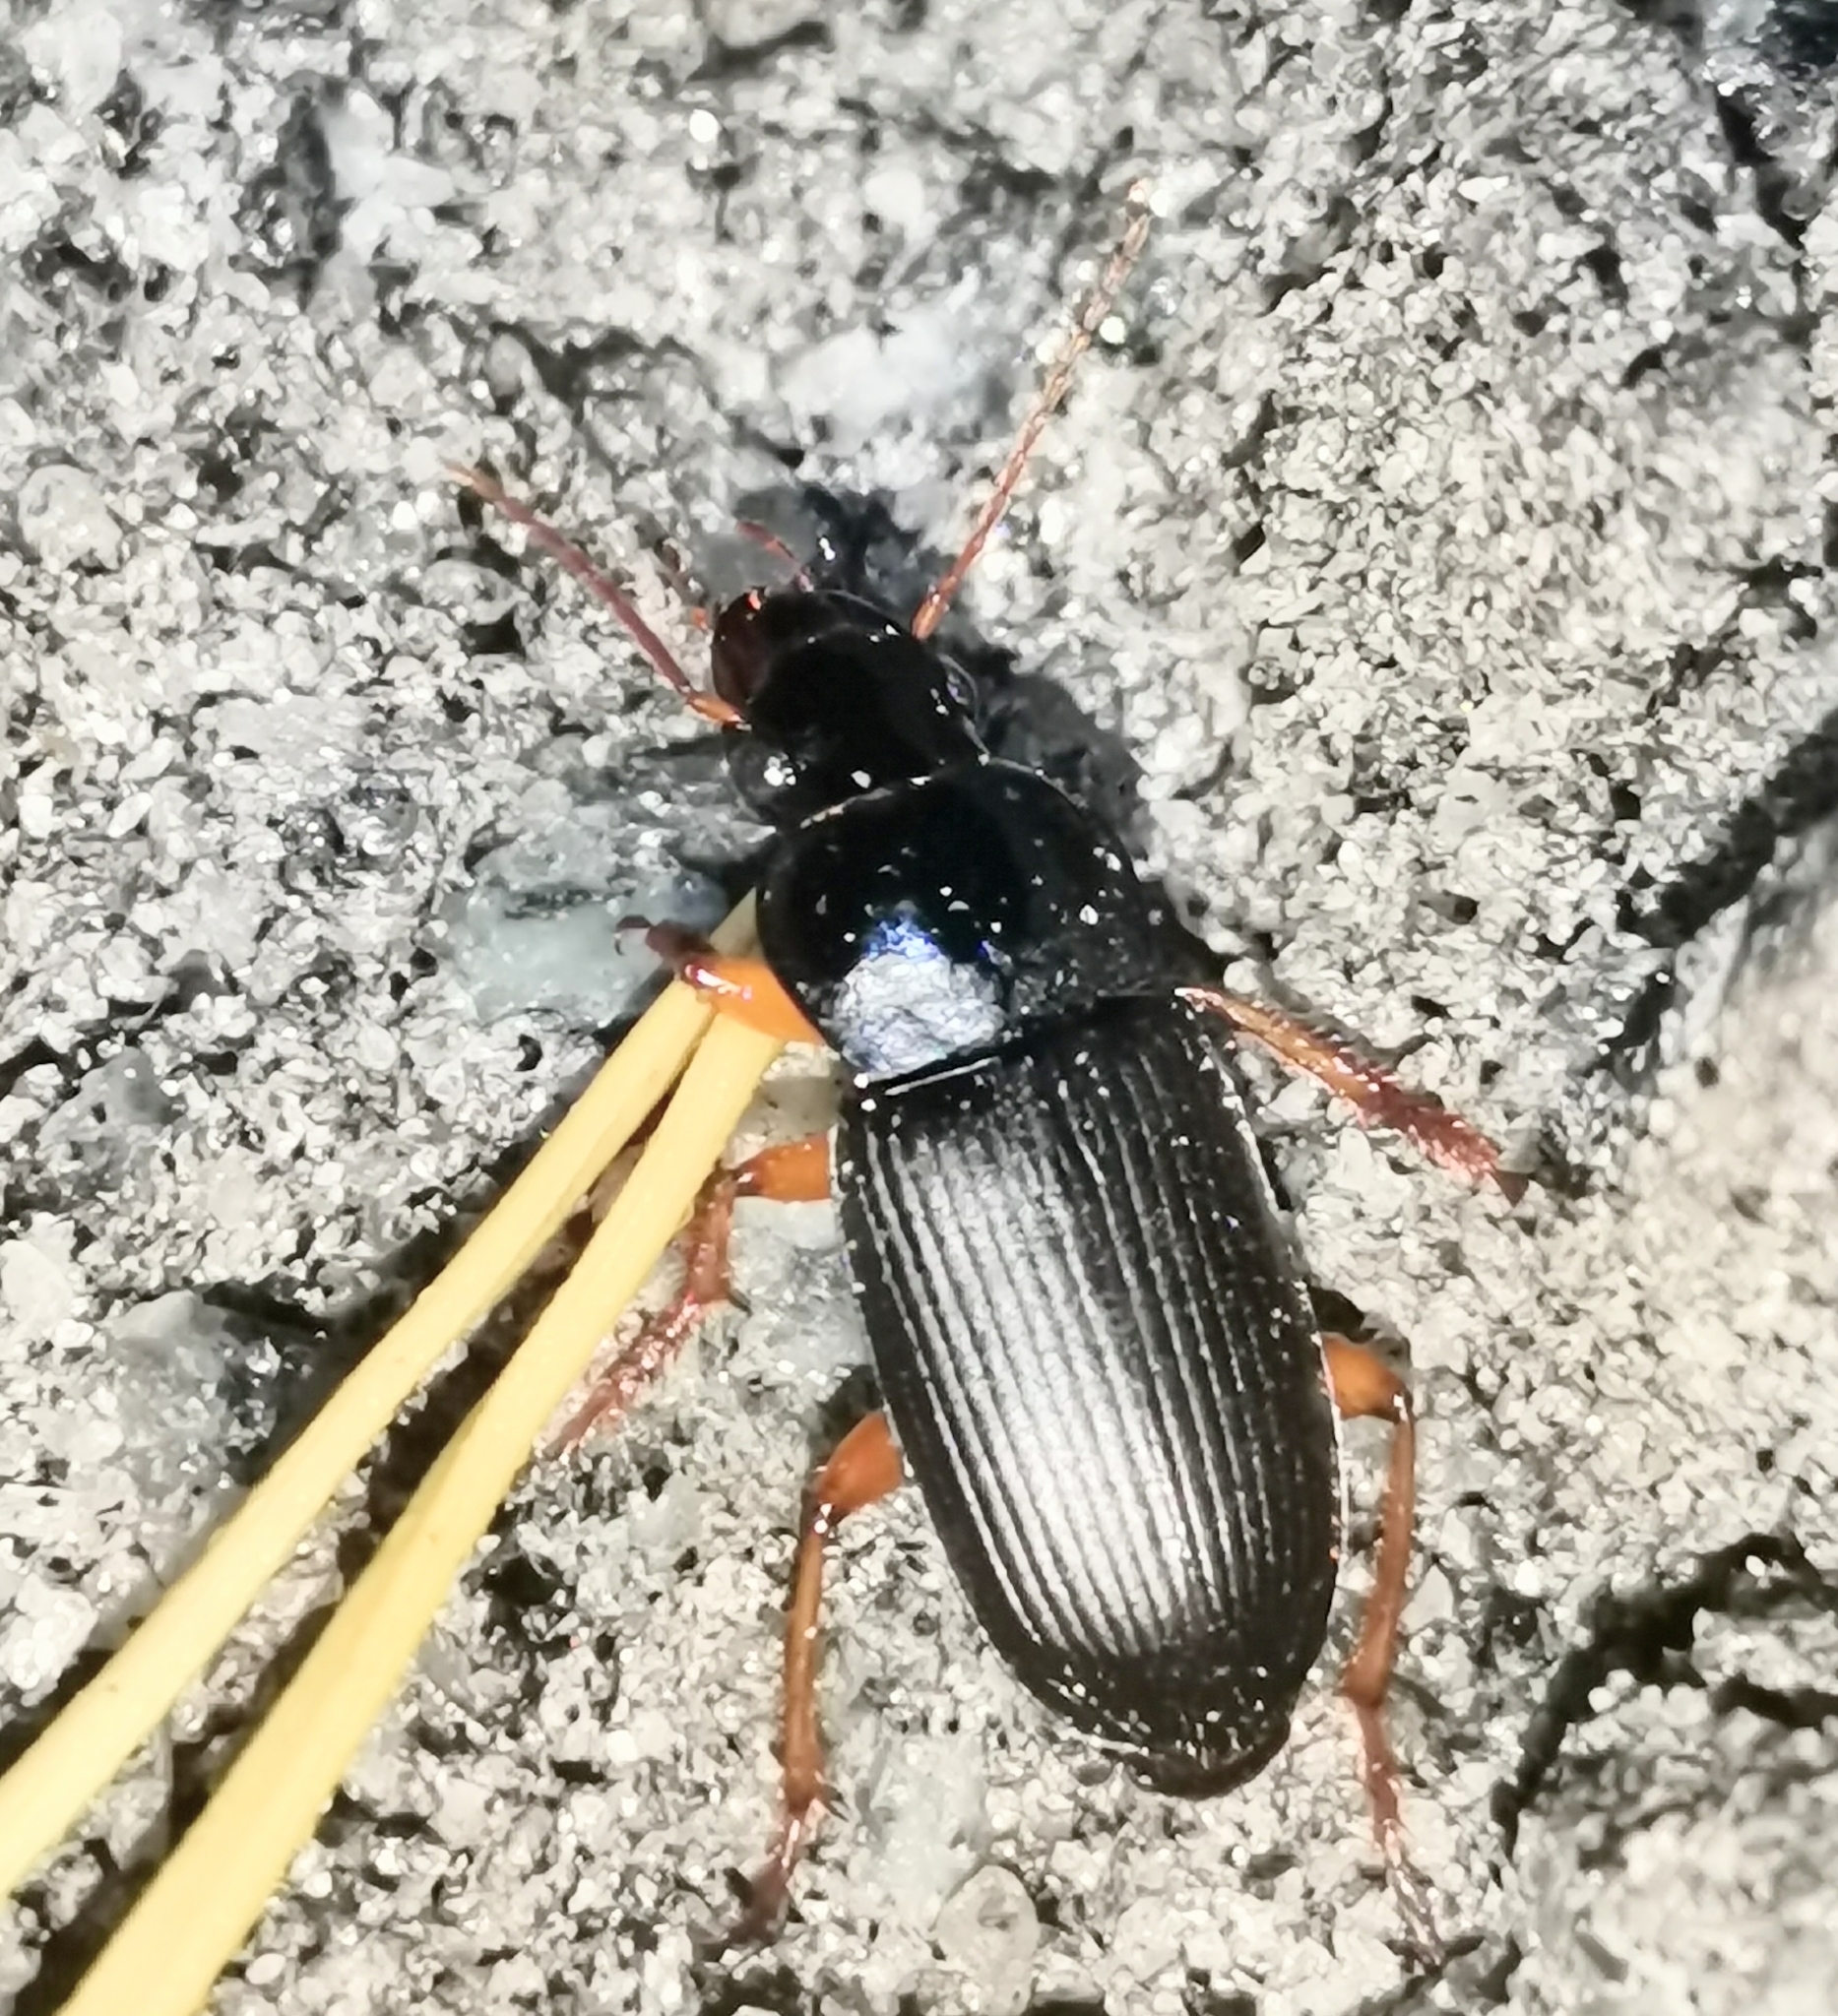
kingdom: Animalia
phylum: Arthropoda
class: Insecta
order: Coleoptera
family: Carabidae
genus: Harpalus
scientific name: Harpalus rufipes
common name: Strawberry harp ground beetle
